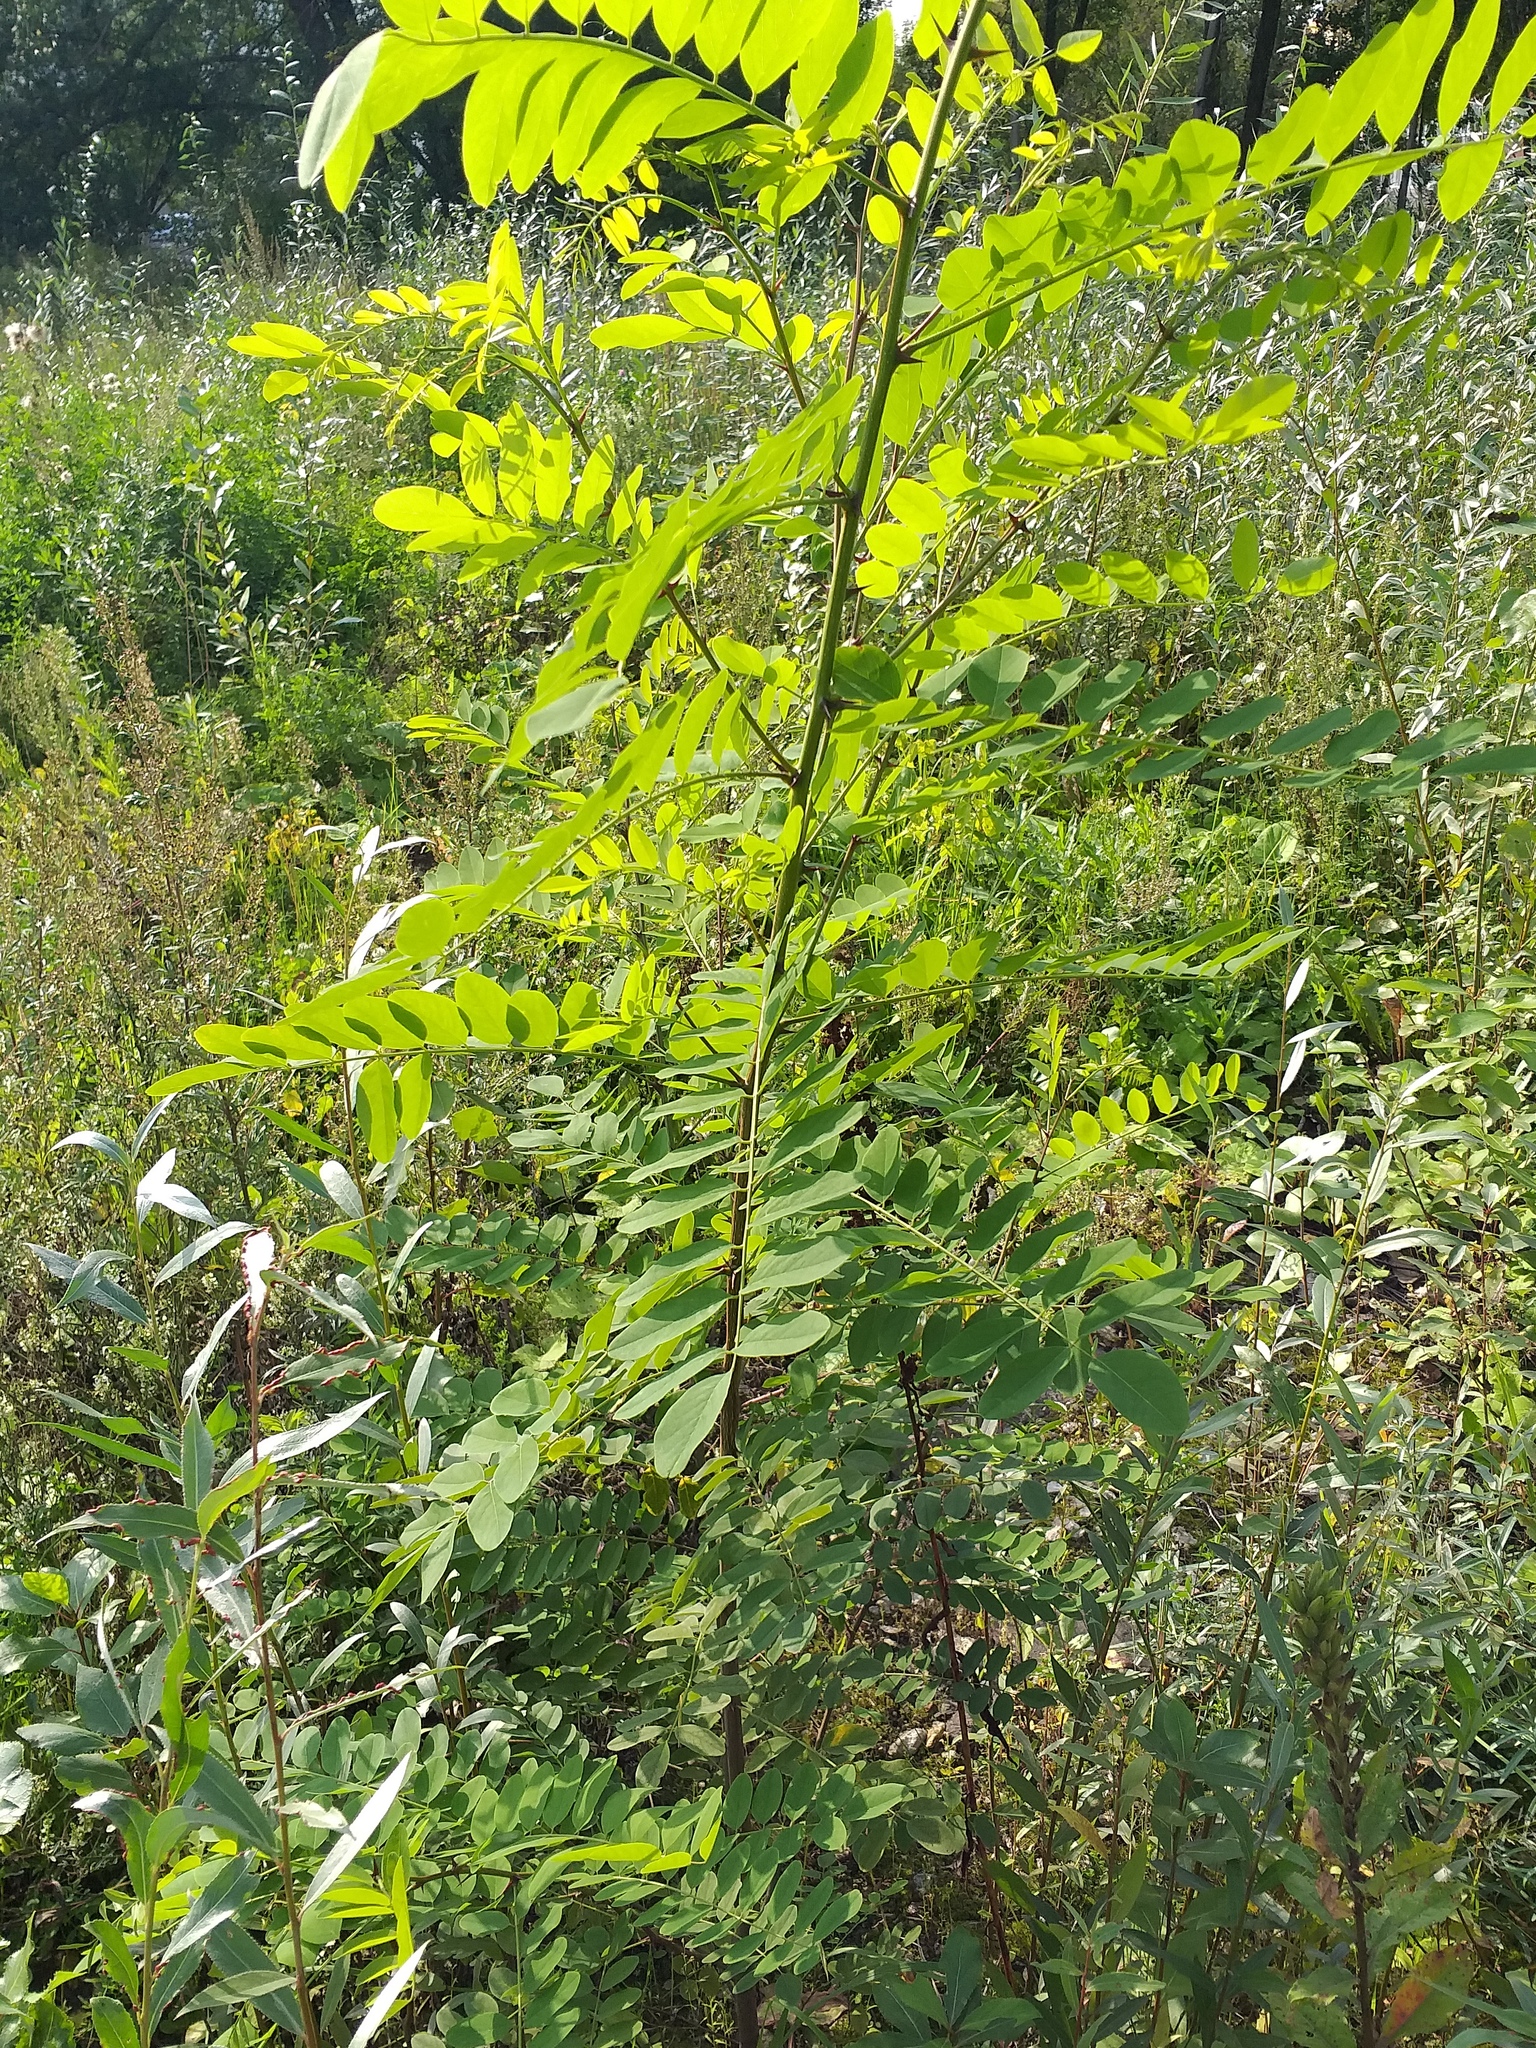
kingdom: Plantae
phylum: Tracheophyta
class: Magnoliopsida
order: Fabales
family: Fabaceae
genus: Robinia
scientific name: Robinia pseudoacacia
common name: Black locust
